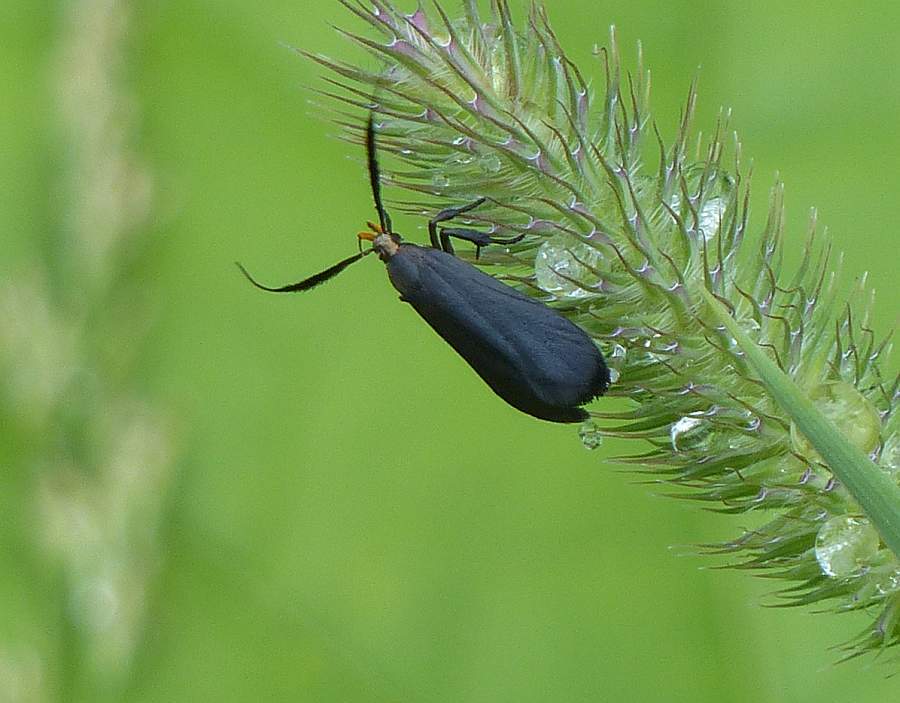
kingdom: Animalia
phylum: Arthropoda
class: Insecta
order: Lepidoptera
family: Gelechiidae
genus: Dichomeris
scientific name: Dichomeris nonstrigella
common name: Little devil moth
